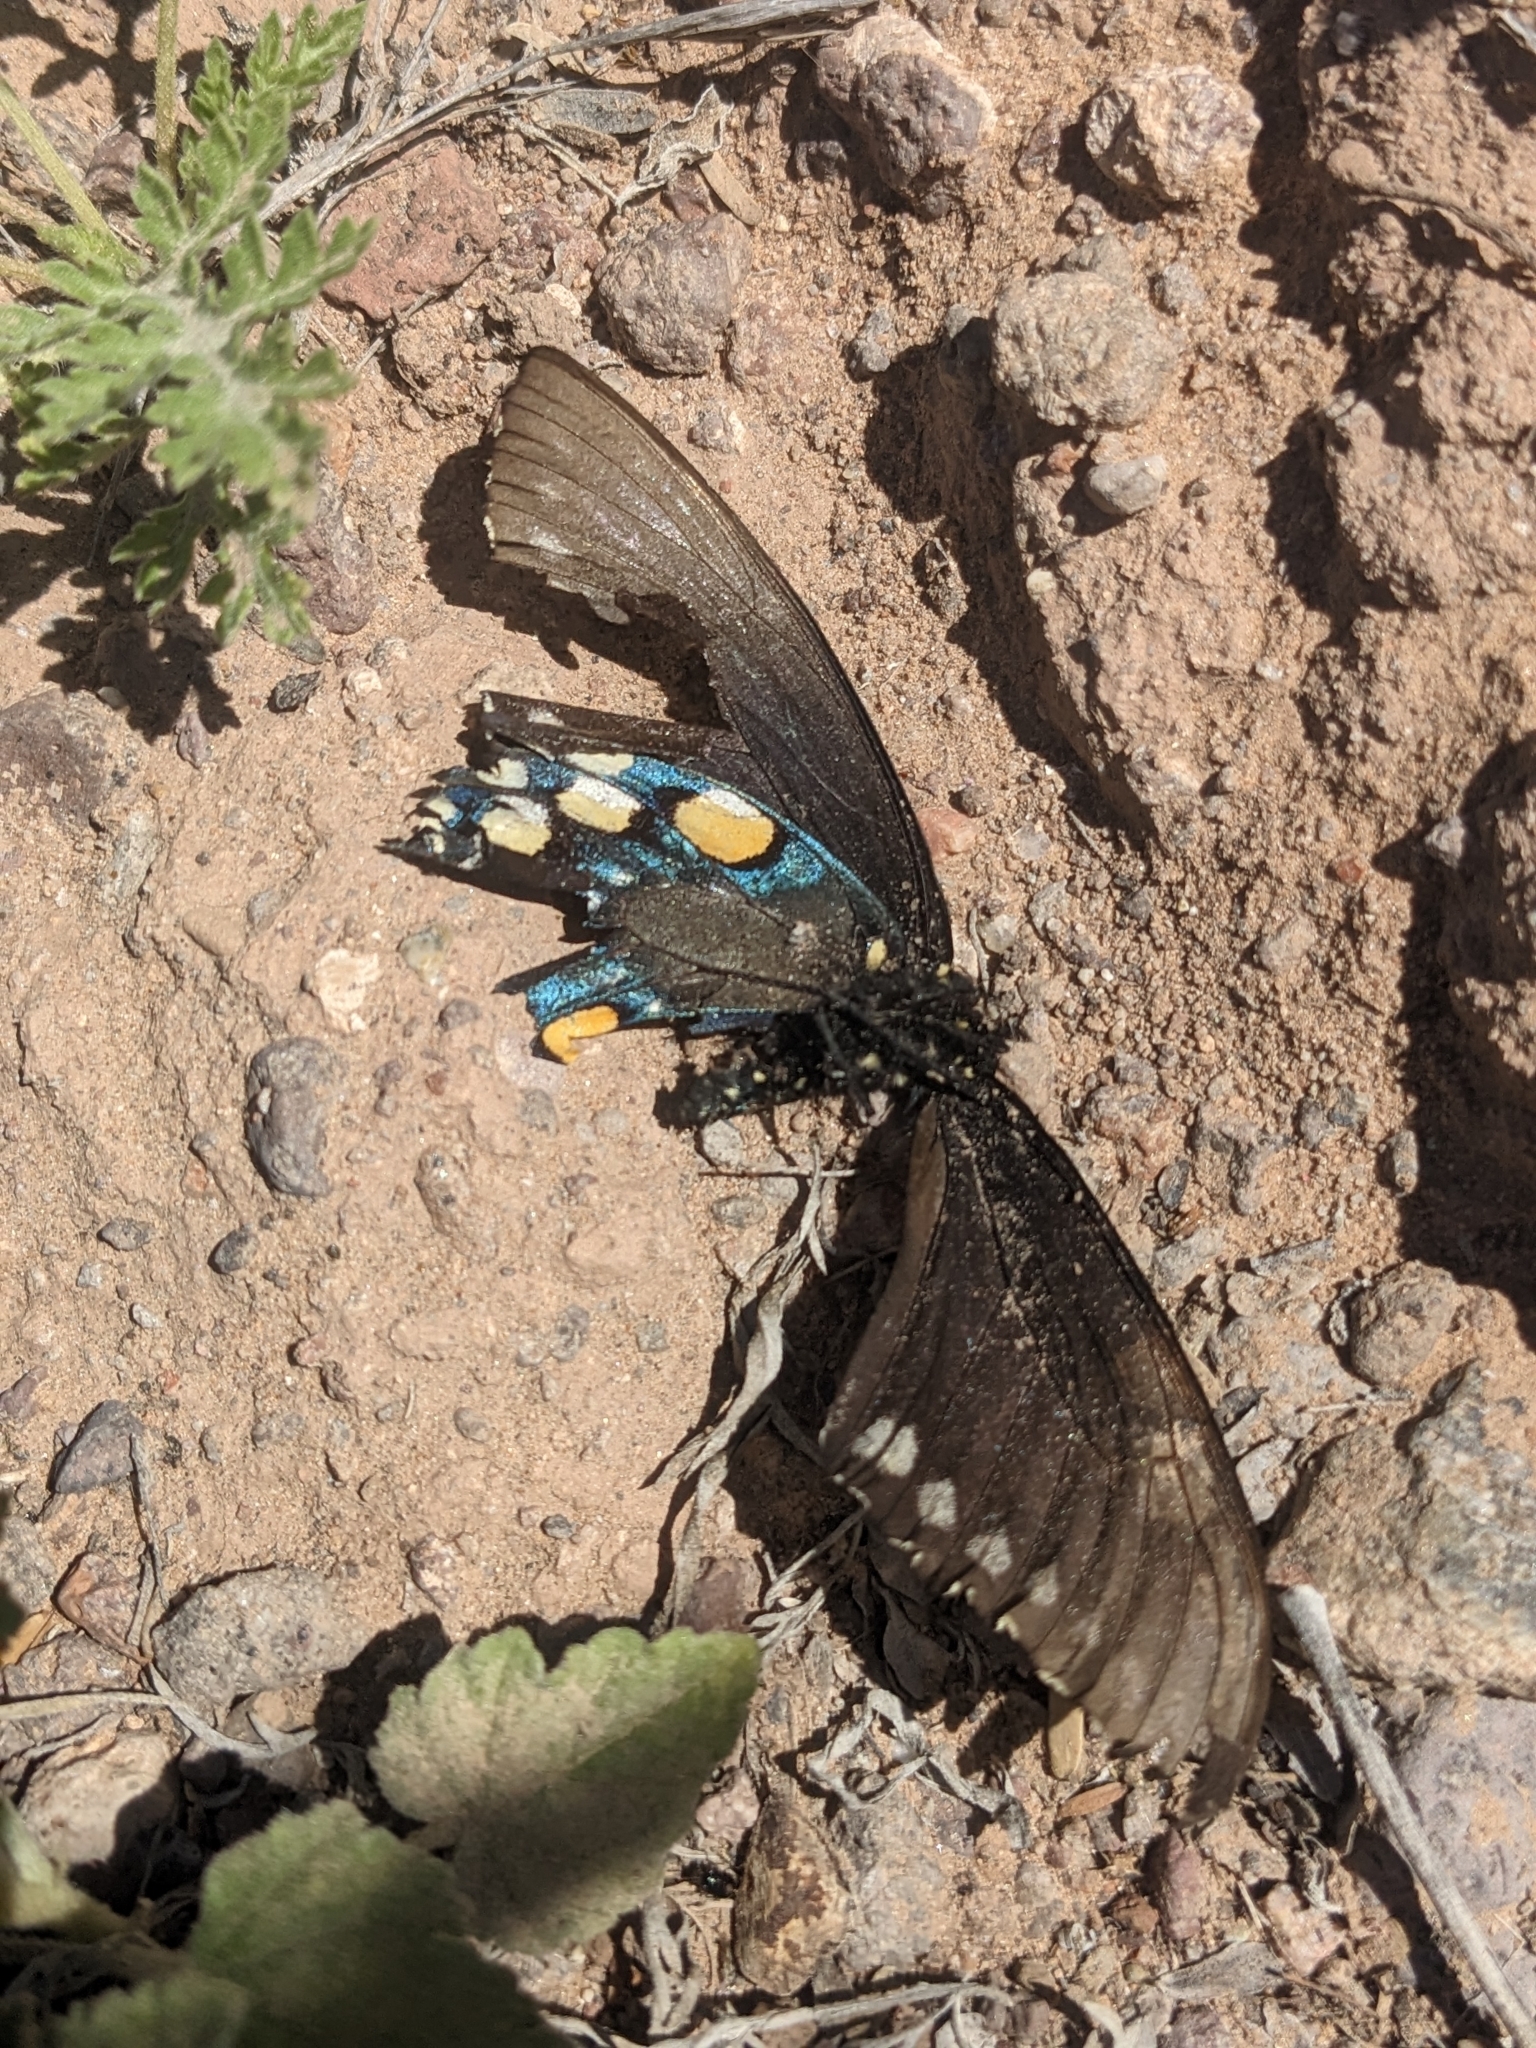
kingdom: Animalia
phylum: Arthropoda
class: Insecta
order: Lepidoptera
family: Papilionidae
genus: Battus
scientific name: Battus philenor
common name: Pipevine swallowtail
